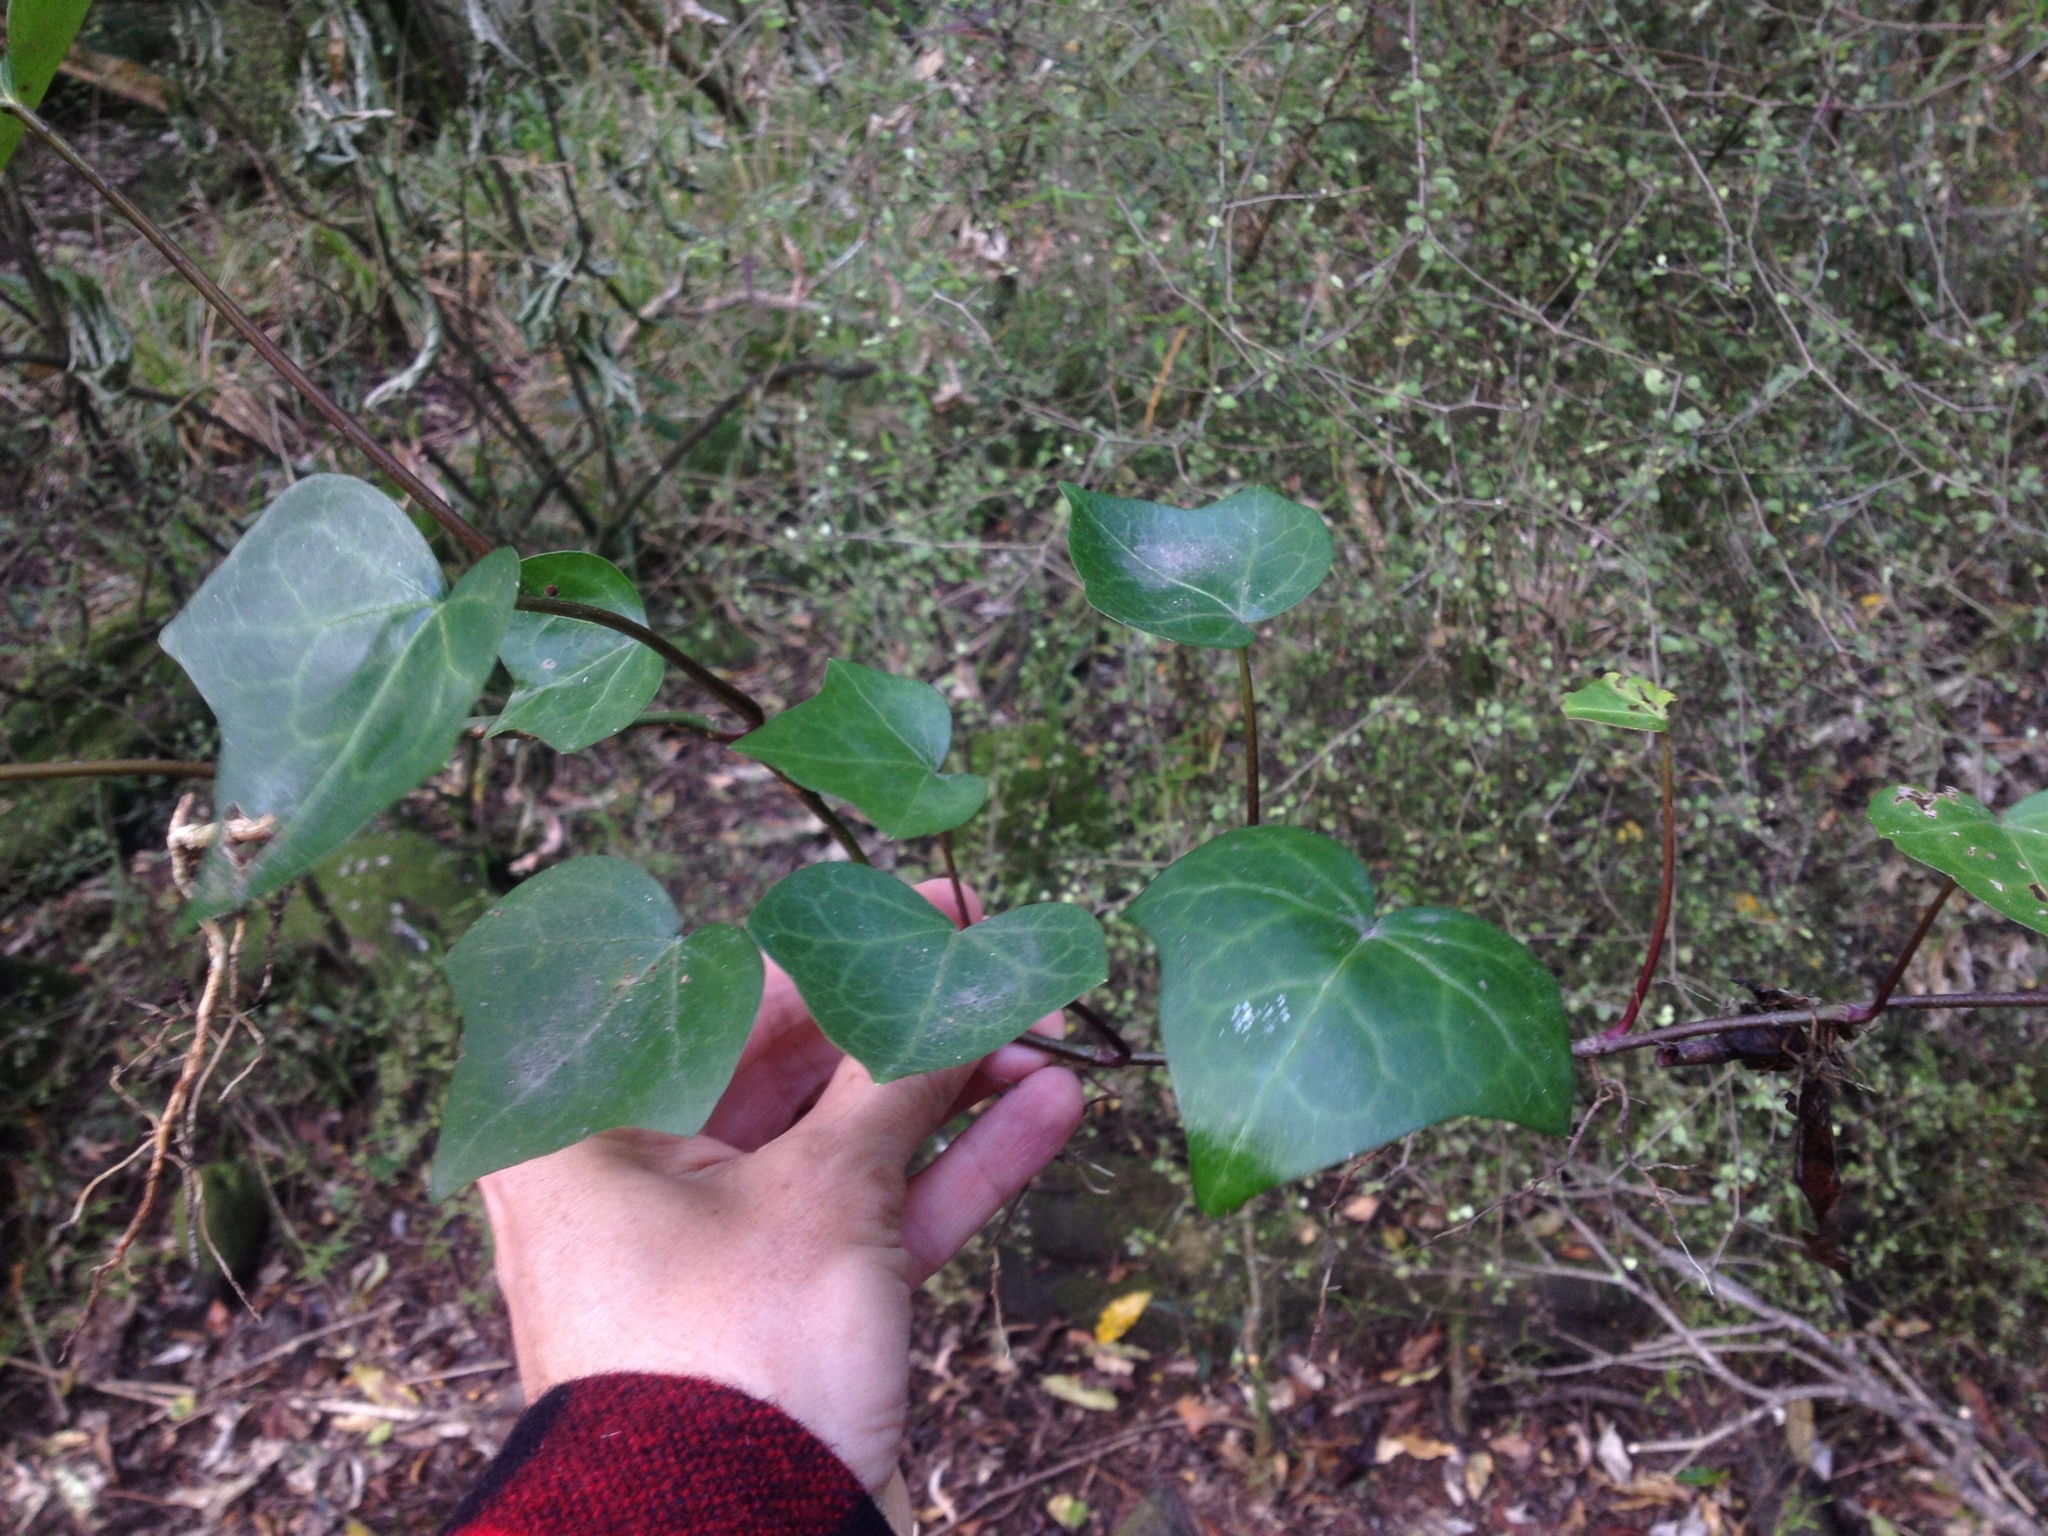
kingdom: Plantae
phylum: Tracheophyta
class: Magnoliopsida
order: Apiales
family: Araliaceae
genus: Hedera
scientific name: Hedera helix
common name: Ivy
